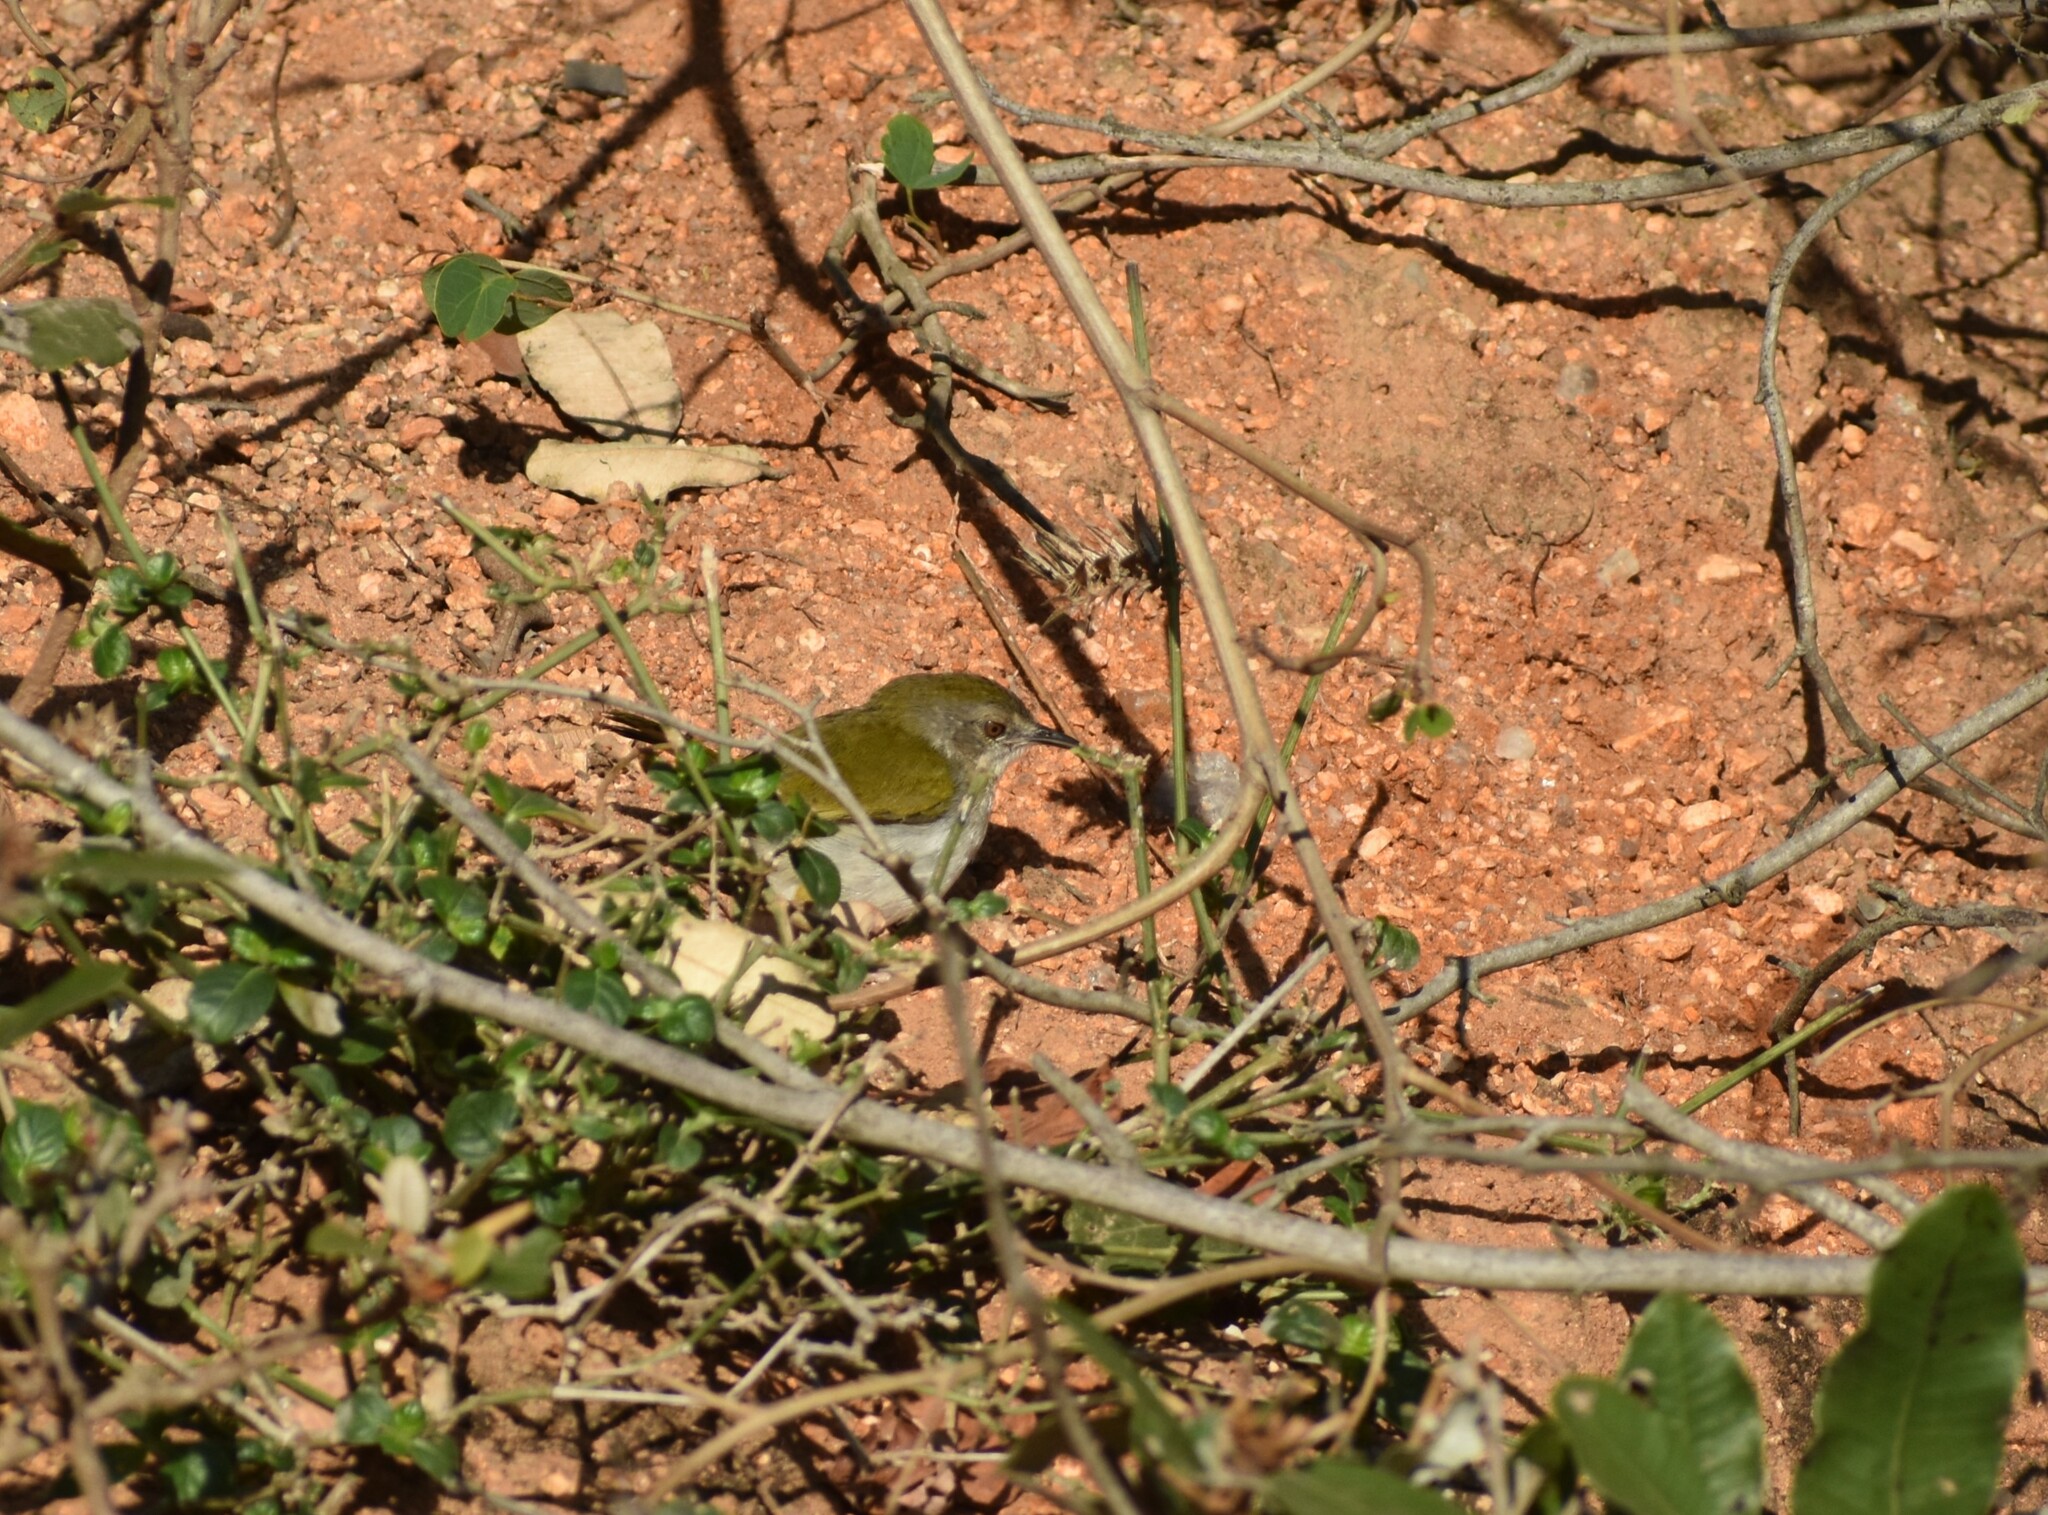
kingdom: Animalia
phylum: Chordata
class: Aves
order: Passeriformes
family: Cisticolidae
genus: Camaroptera
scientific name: Camaroptera brachyura
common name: Green-backed camaroptera
